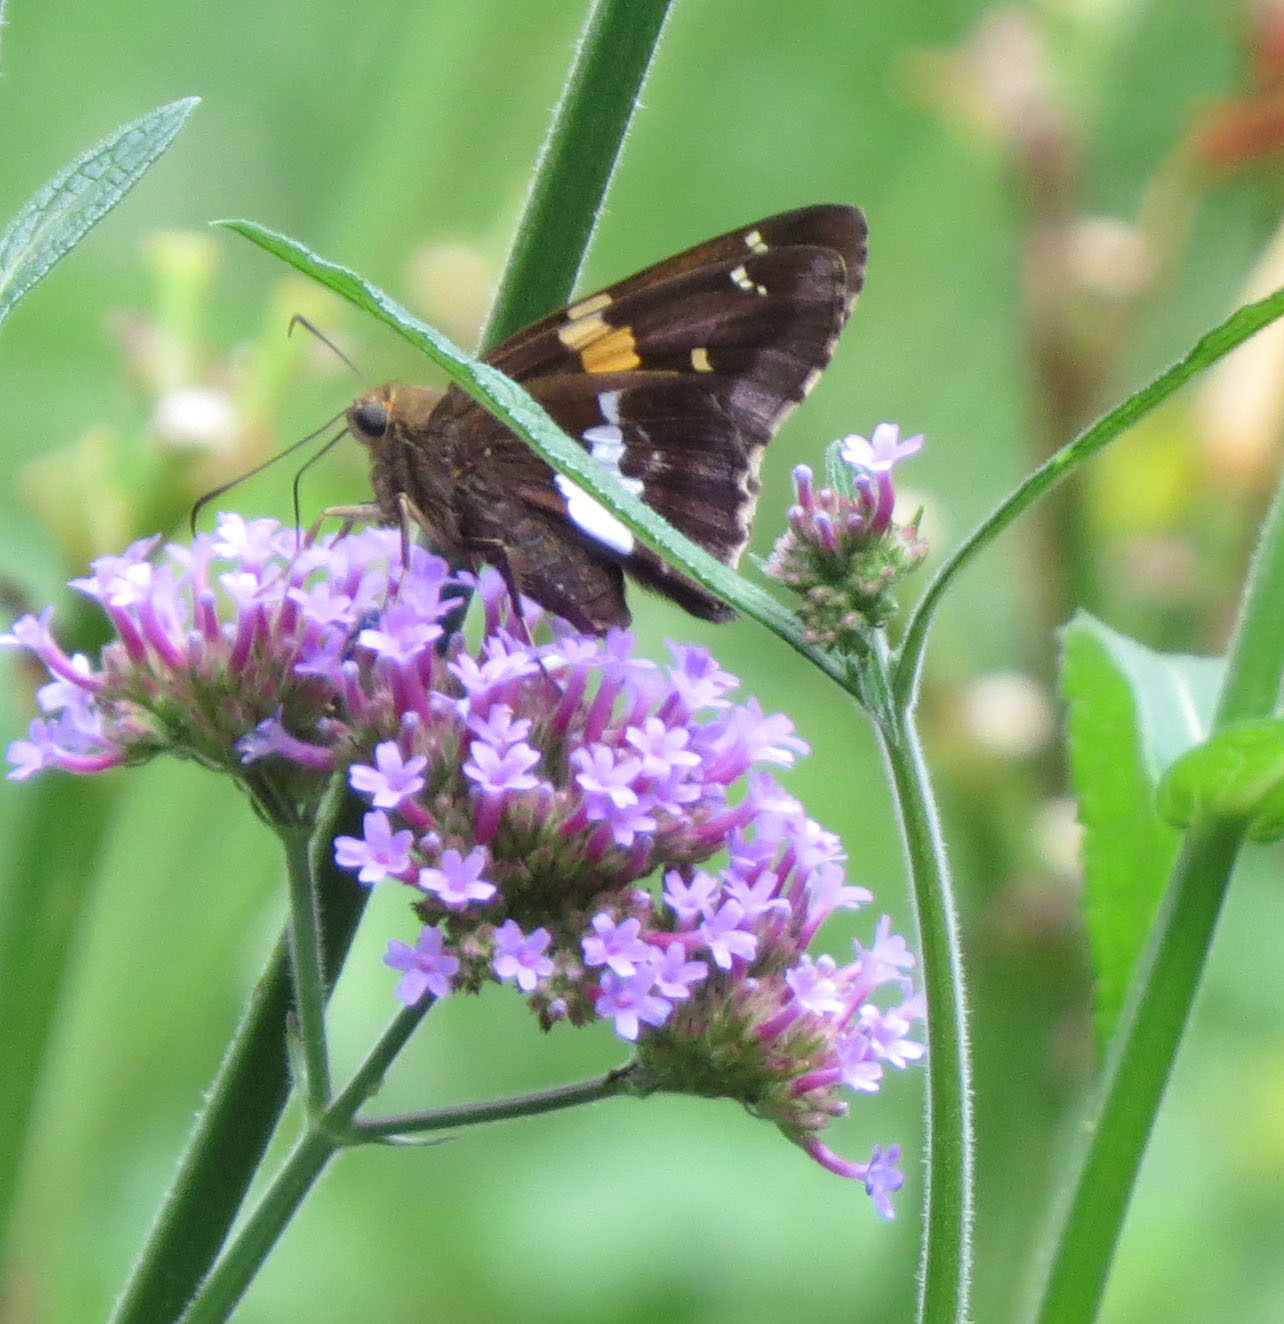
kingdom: Animalia
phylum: Arthropoda
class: Insecta
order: Lepidoptera
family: Hesperiidae
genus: Epargyreus
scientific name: Epargyreus clarus
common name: Silver-spotted skipper
